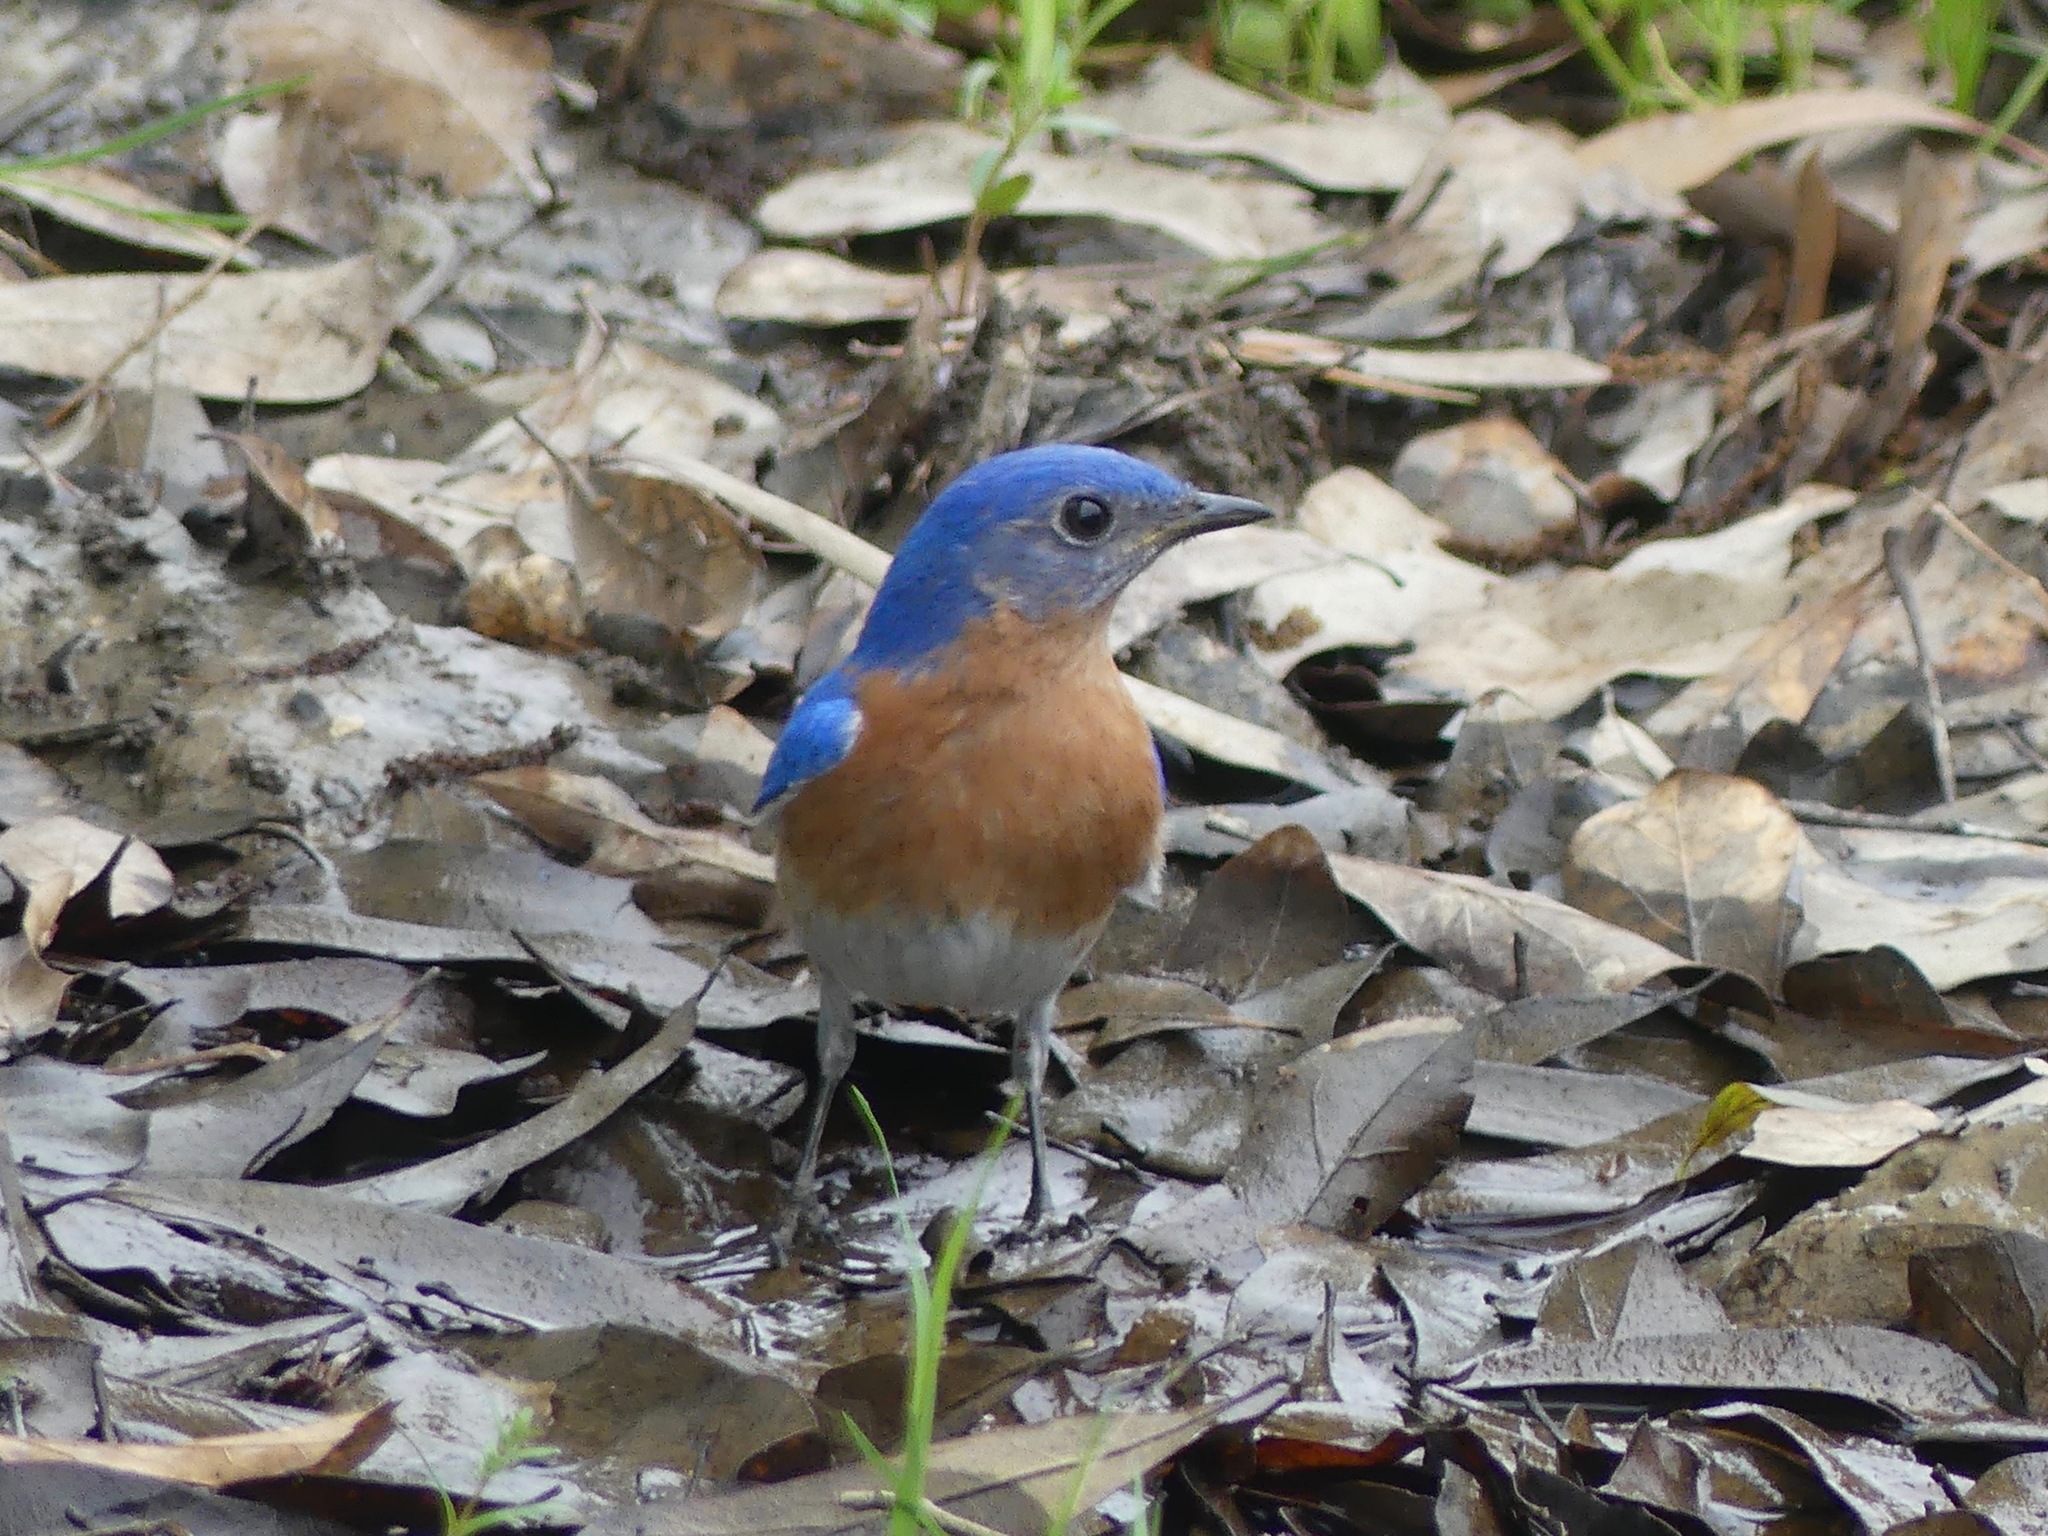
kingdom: Animalia
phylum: Chordata
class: Aves
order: Passeriformes
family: Turdidae
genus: Sialia
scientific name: Sialia sialis
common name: Eastern bluebird
